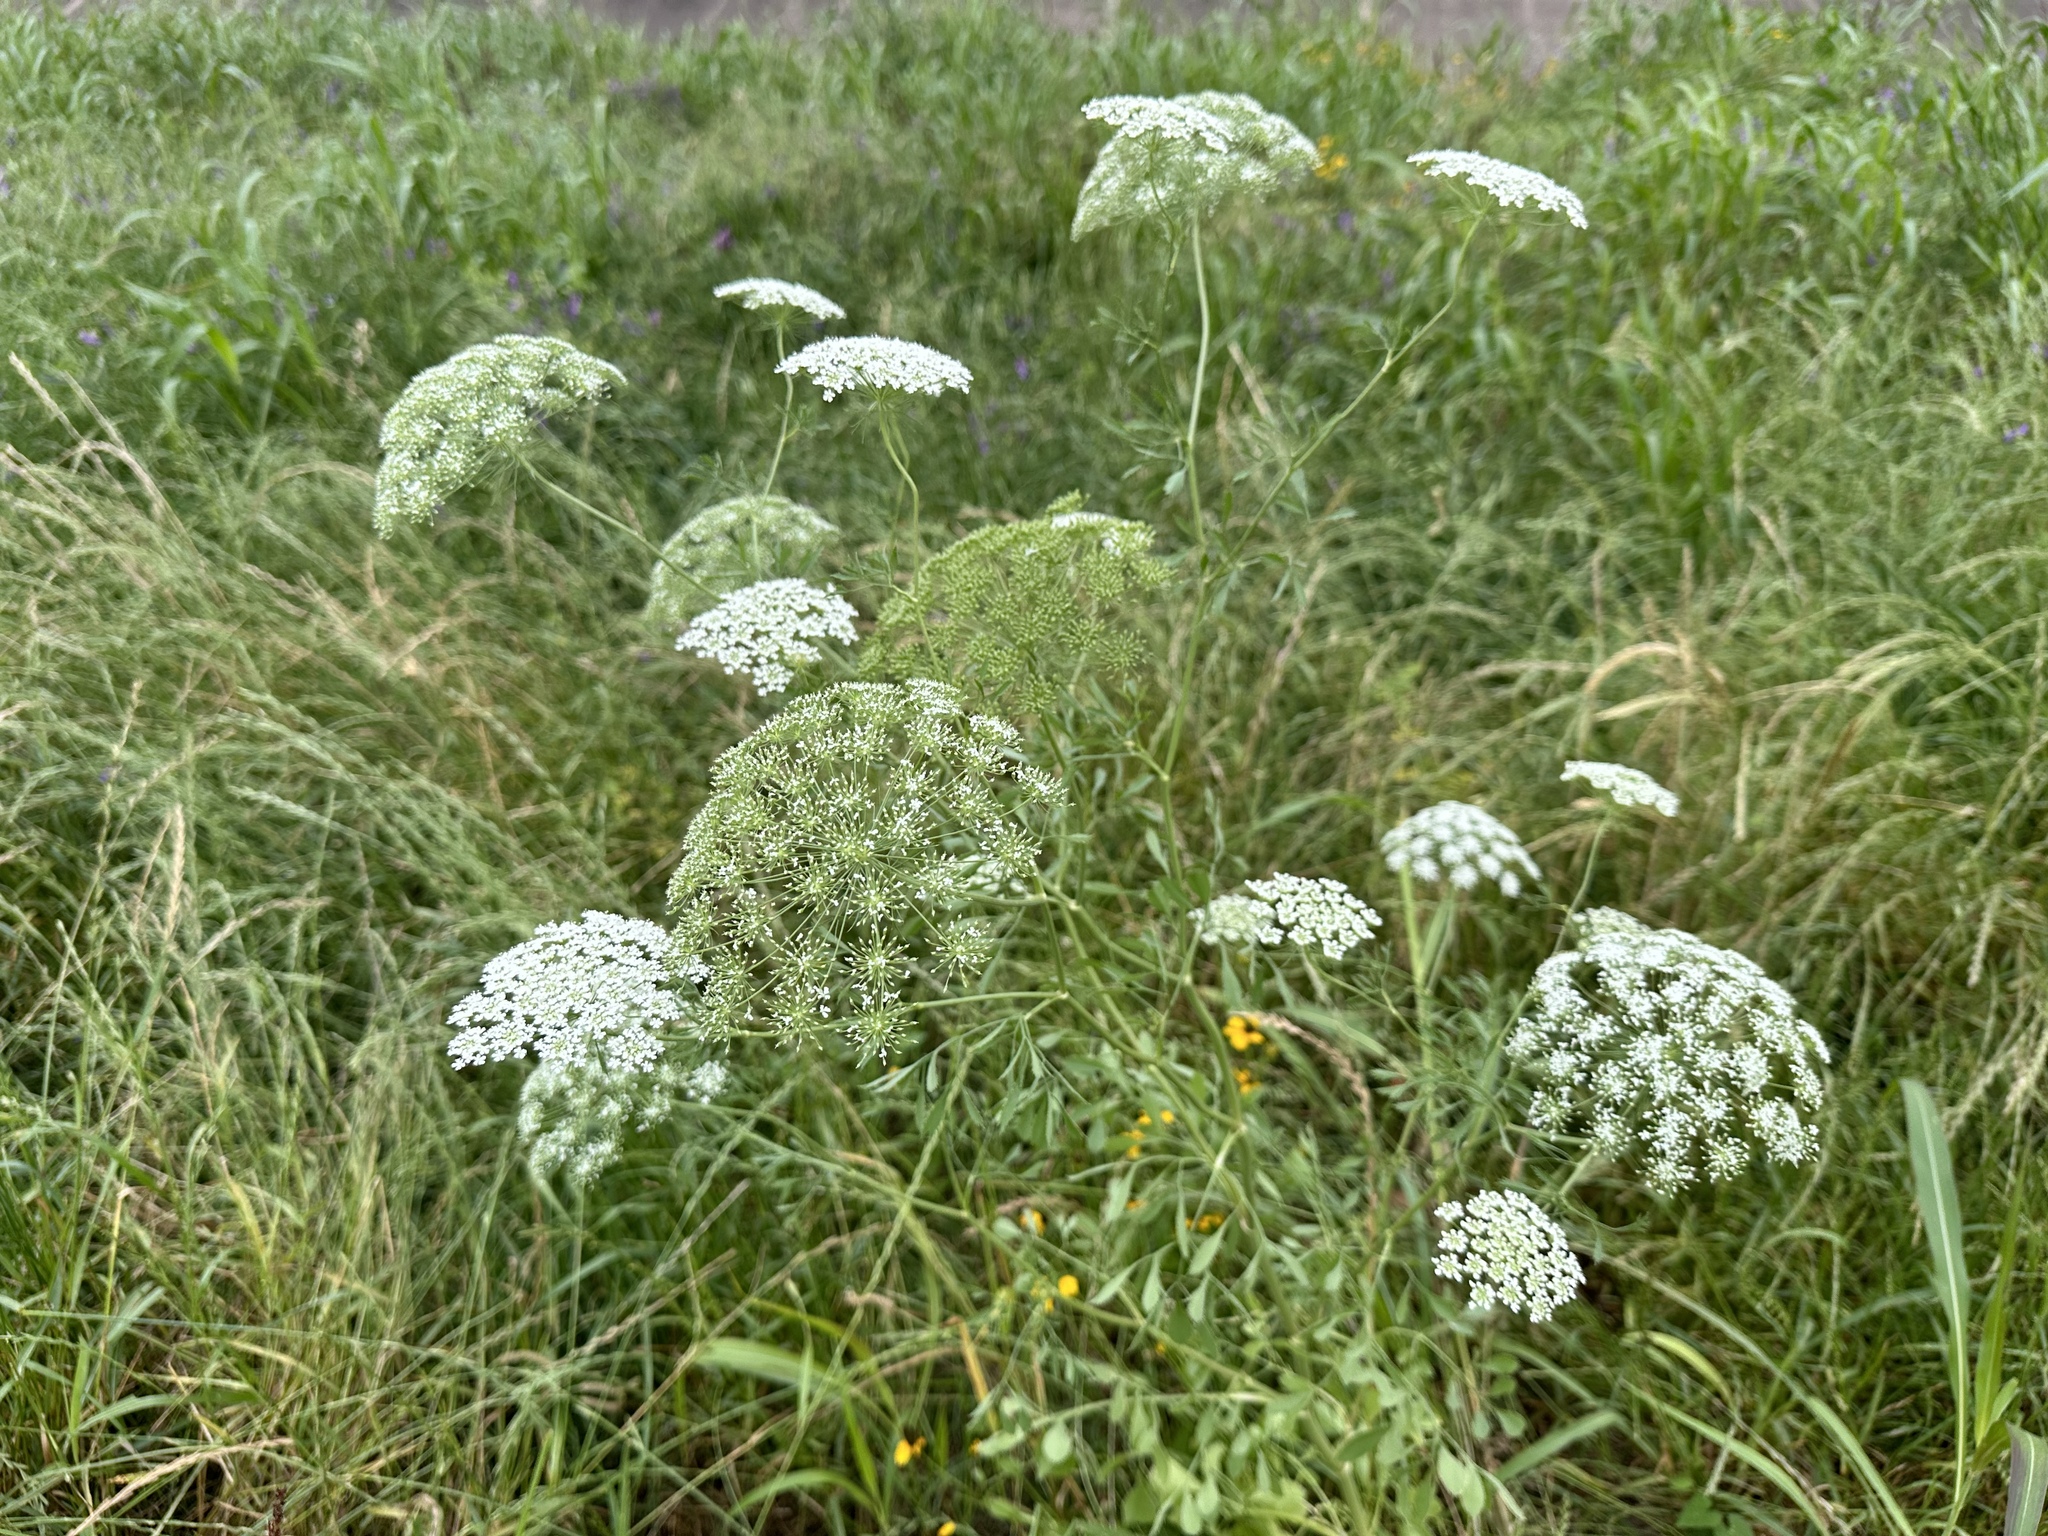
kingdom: Plantae
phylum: Tracheophyta
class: Magnoliopsida
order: Apiales
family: Apiaceae
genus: Ammi
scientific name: Ammi majus
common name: Bullwort
